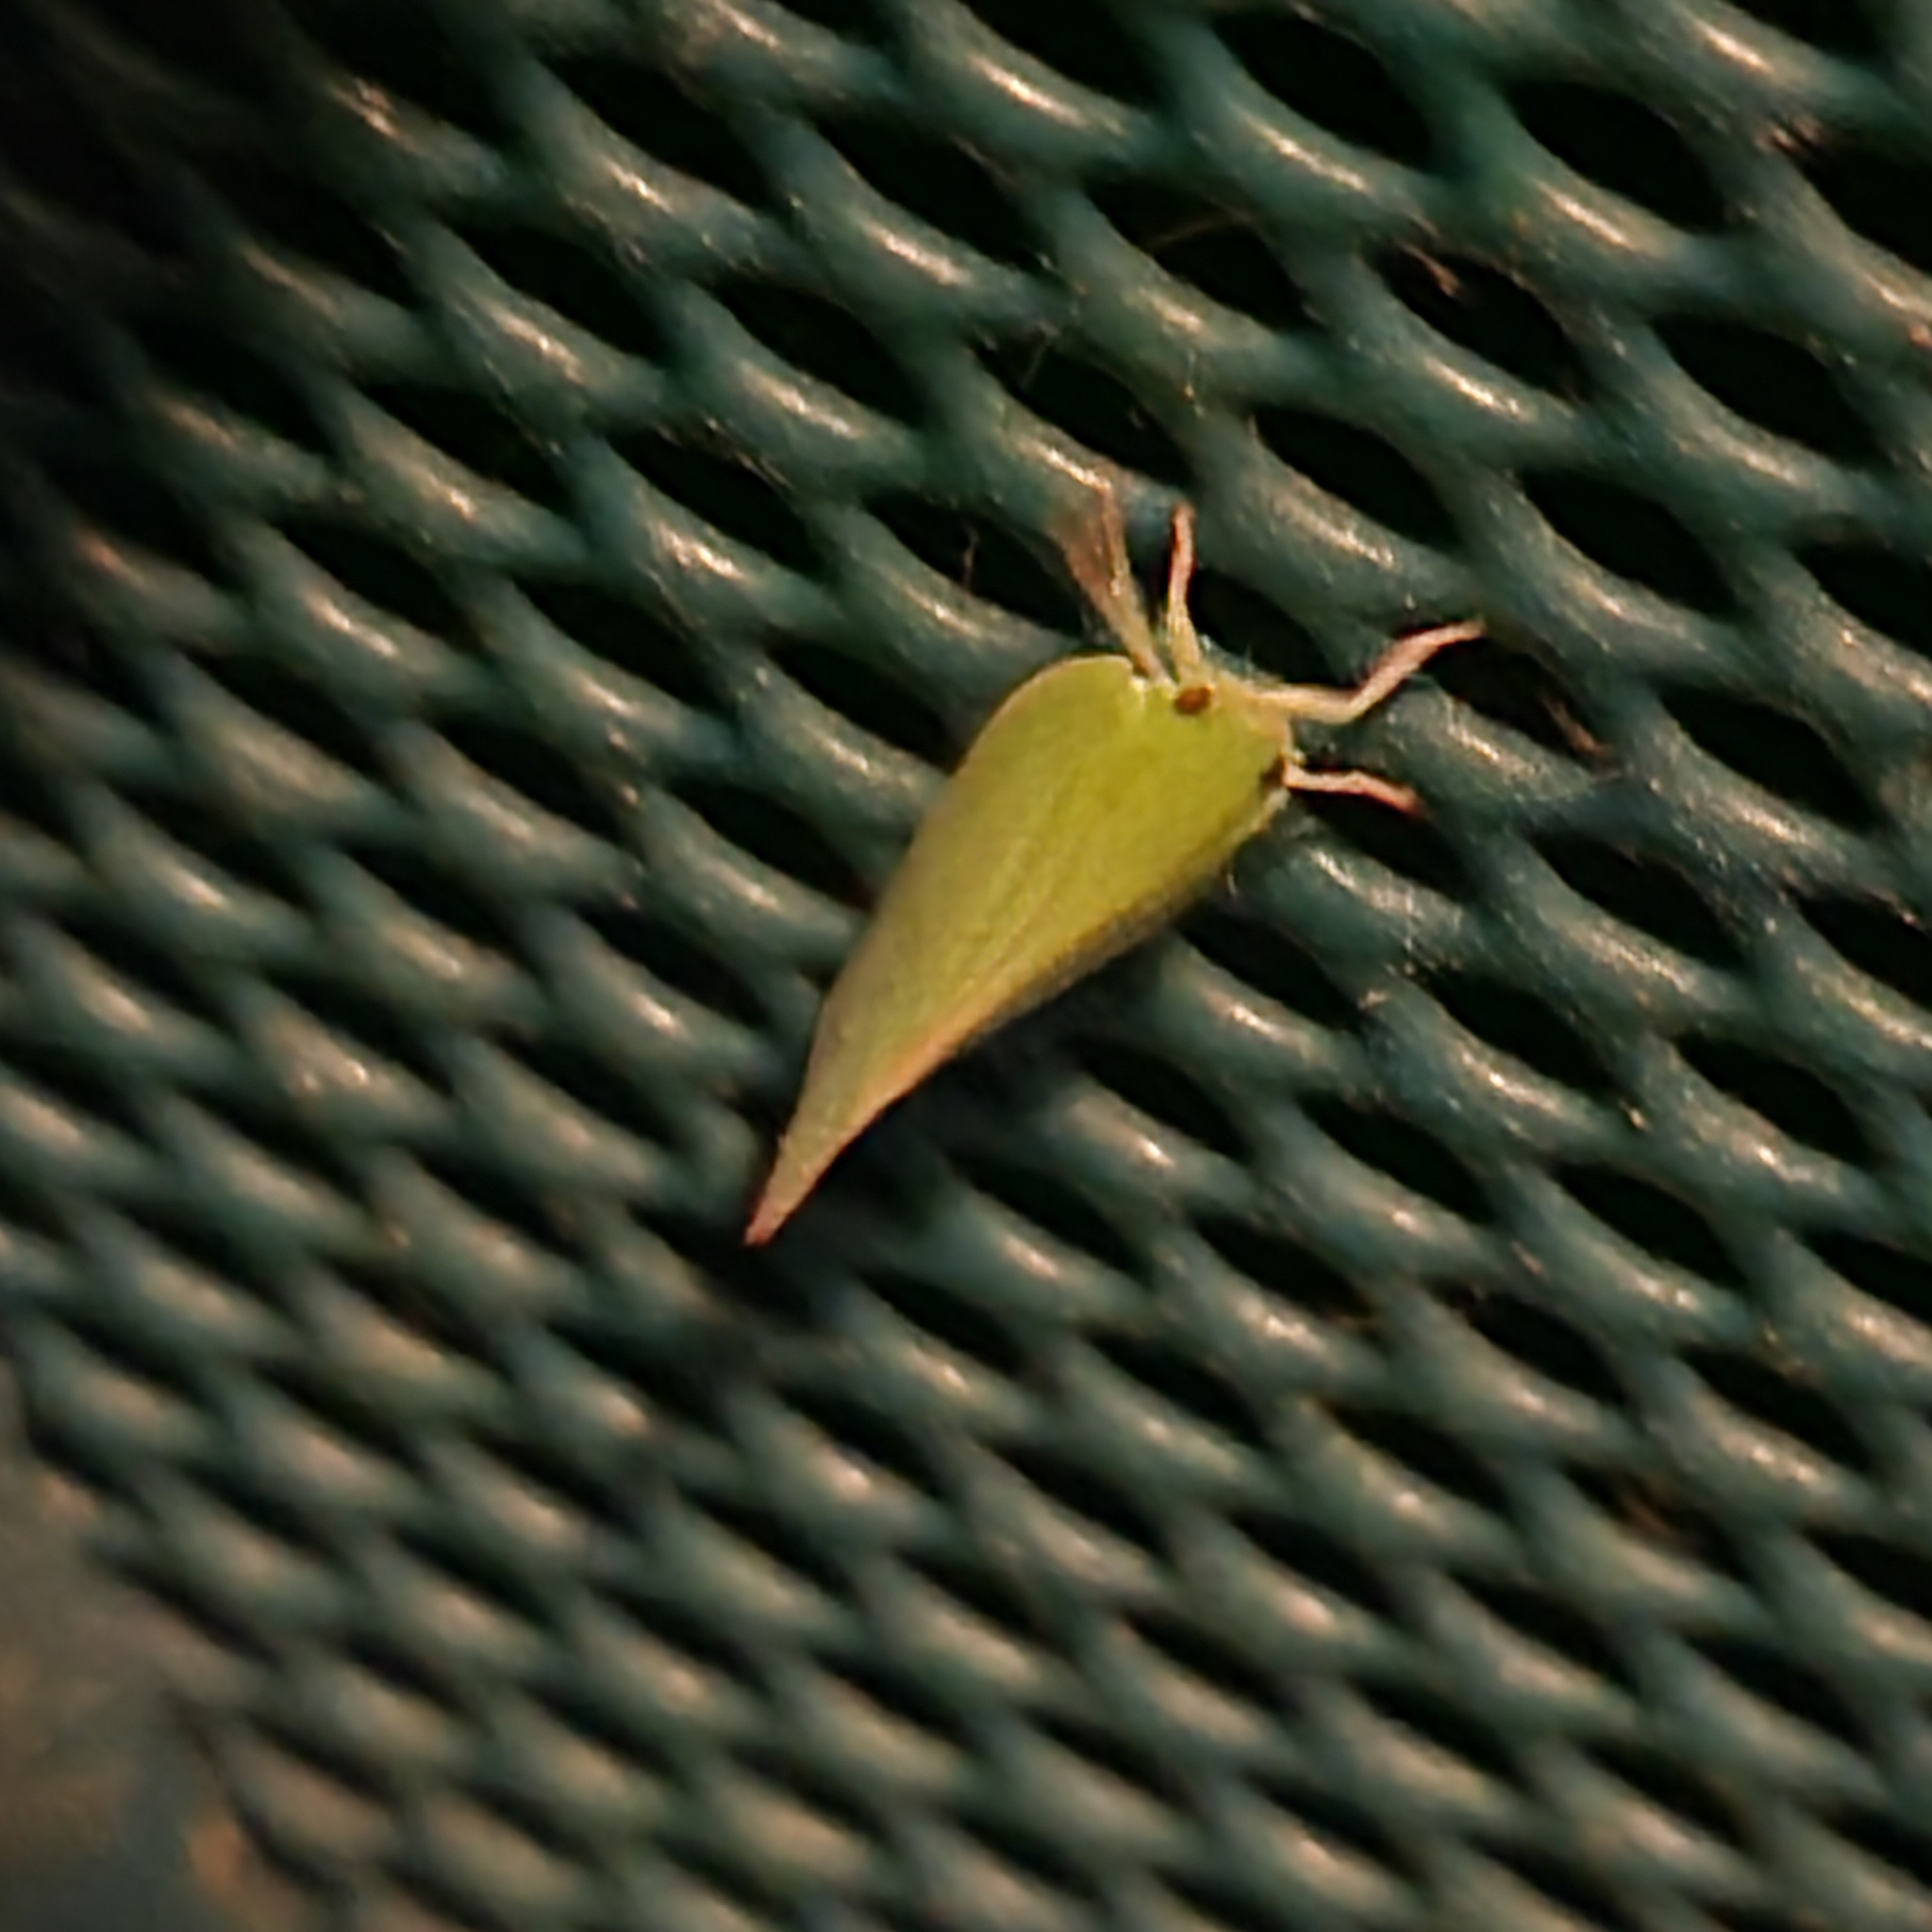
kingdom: Animalia
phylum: Arthropoda
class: Insecta
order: Hemiptera
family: Flatidae
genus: Siphanta
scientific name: Siphanta acuta
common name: Torpedo bug
